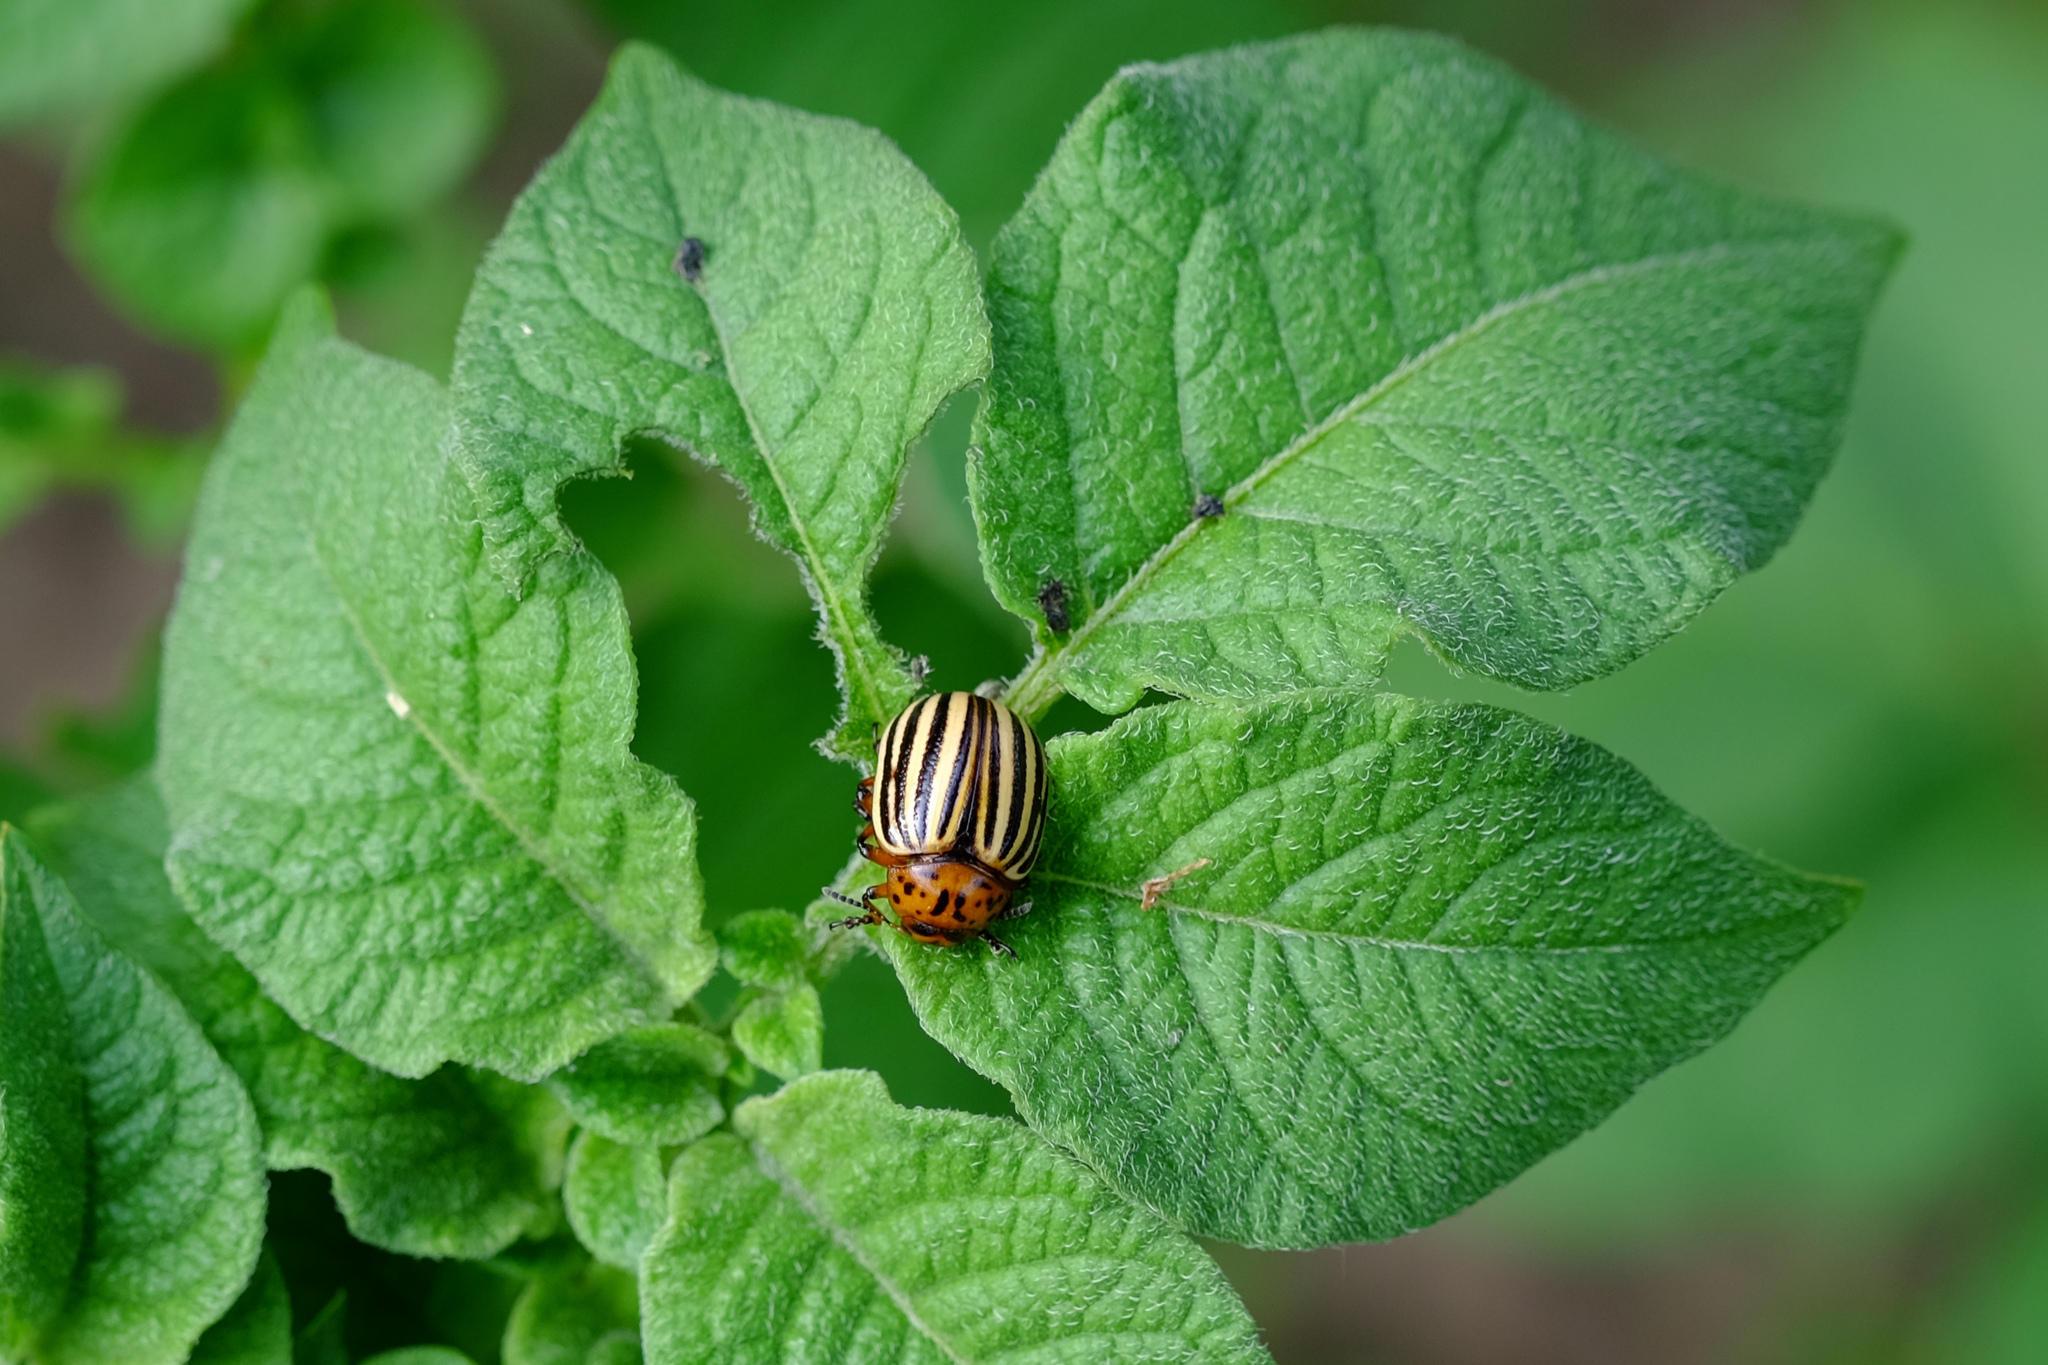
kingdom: Animalia
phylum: Arthropoda
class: Insecta
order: Coleoptera
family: Chrysomelidae
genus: Leptinotarsa
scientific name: Leptinotarsa decemlineata
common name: Colorado potato beetle
